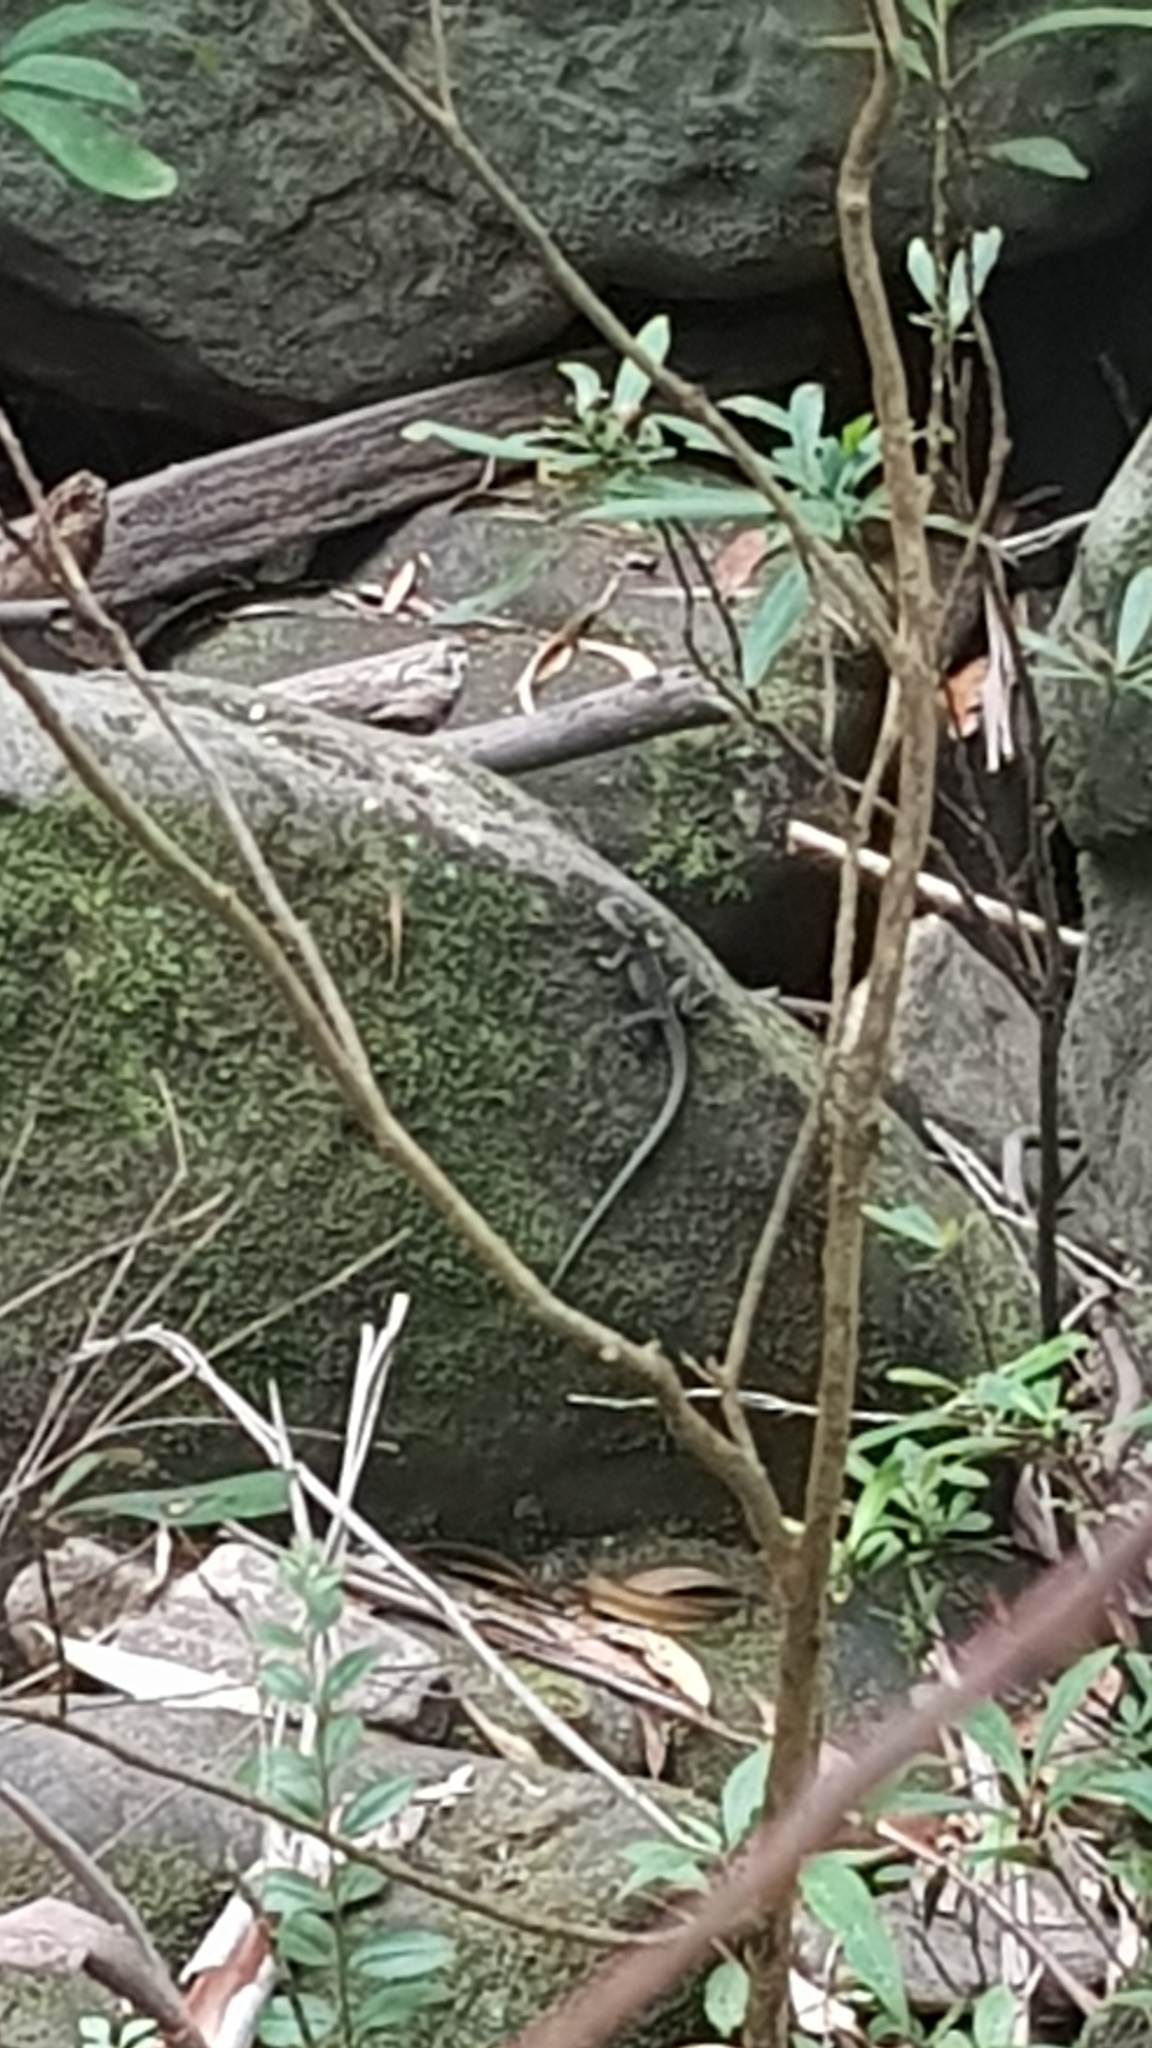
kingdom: Animalia
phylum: Chordata
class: Squamata
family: Agamidae
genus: Intellagama
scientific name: Intellagama lesueurii
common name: Eastern water dragon
